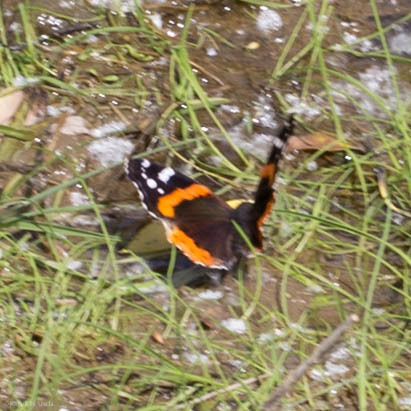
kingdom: Animalia
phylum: Arthropoda
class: Insecta
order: Lepidoptera
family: Nymphalidae
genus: Vanessa
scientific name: Vanessa atalanta
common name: Red admiral
